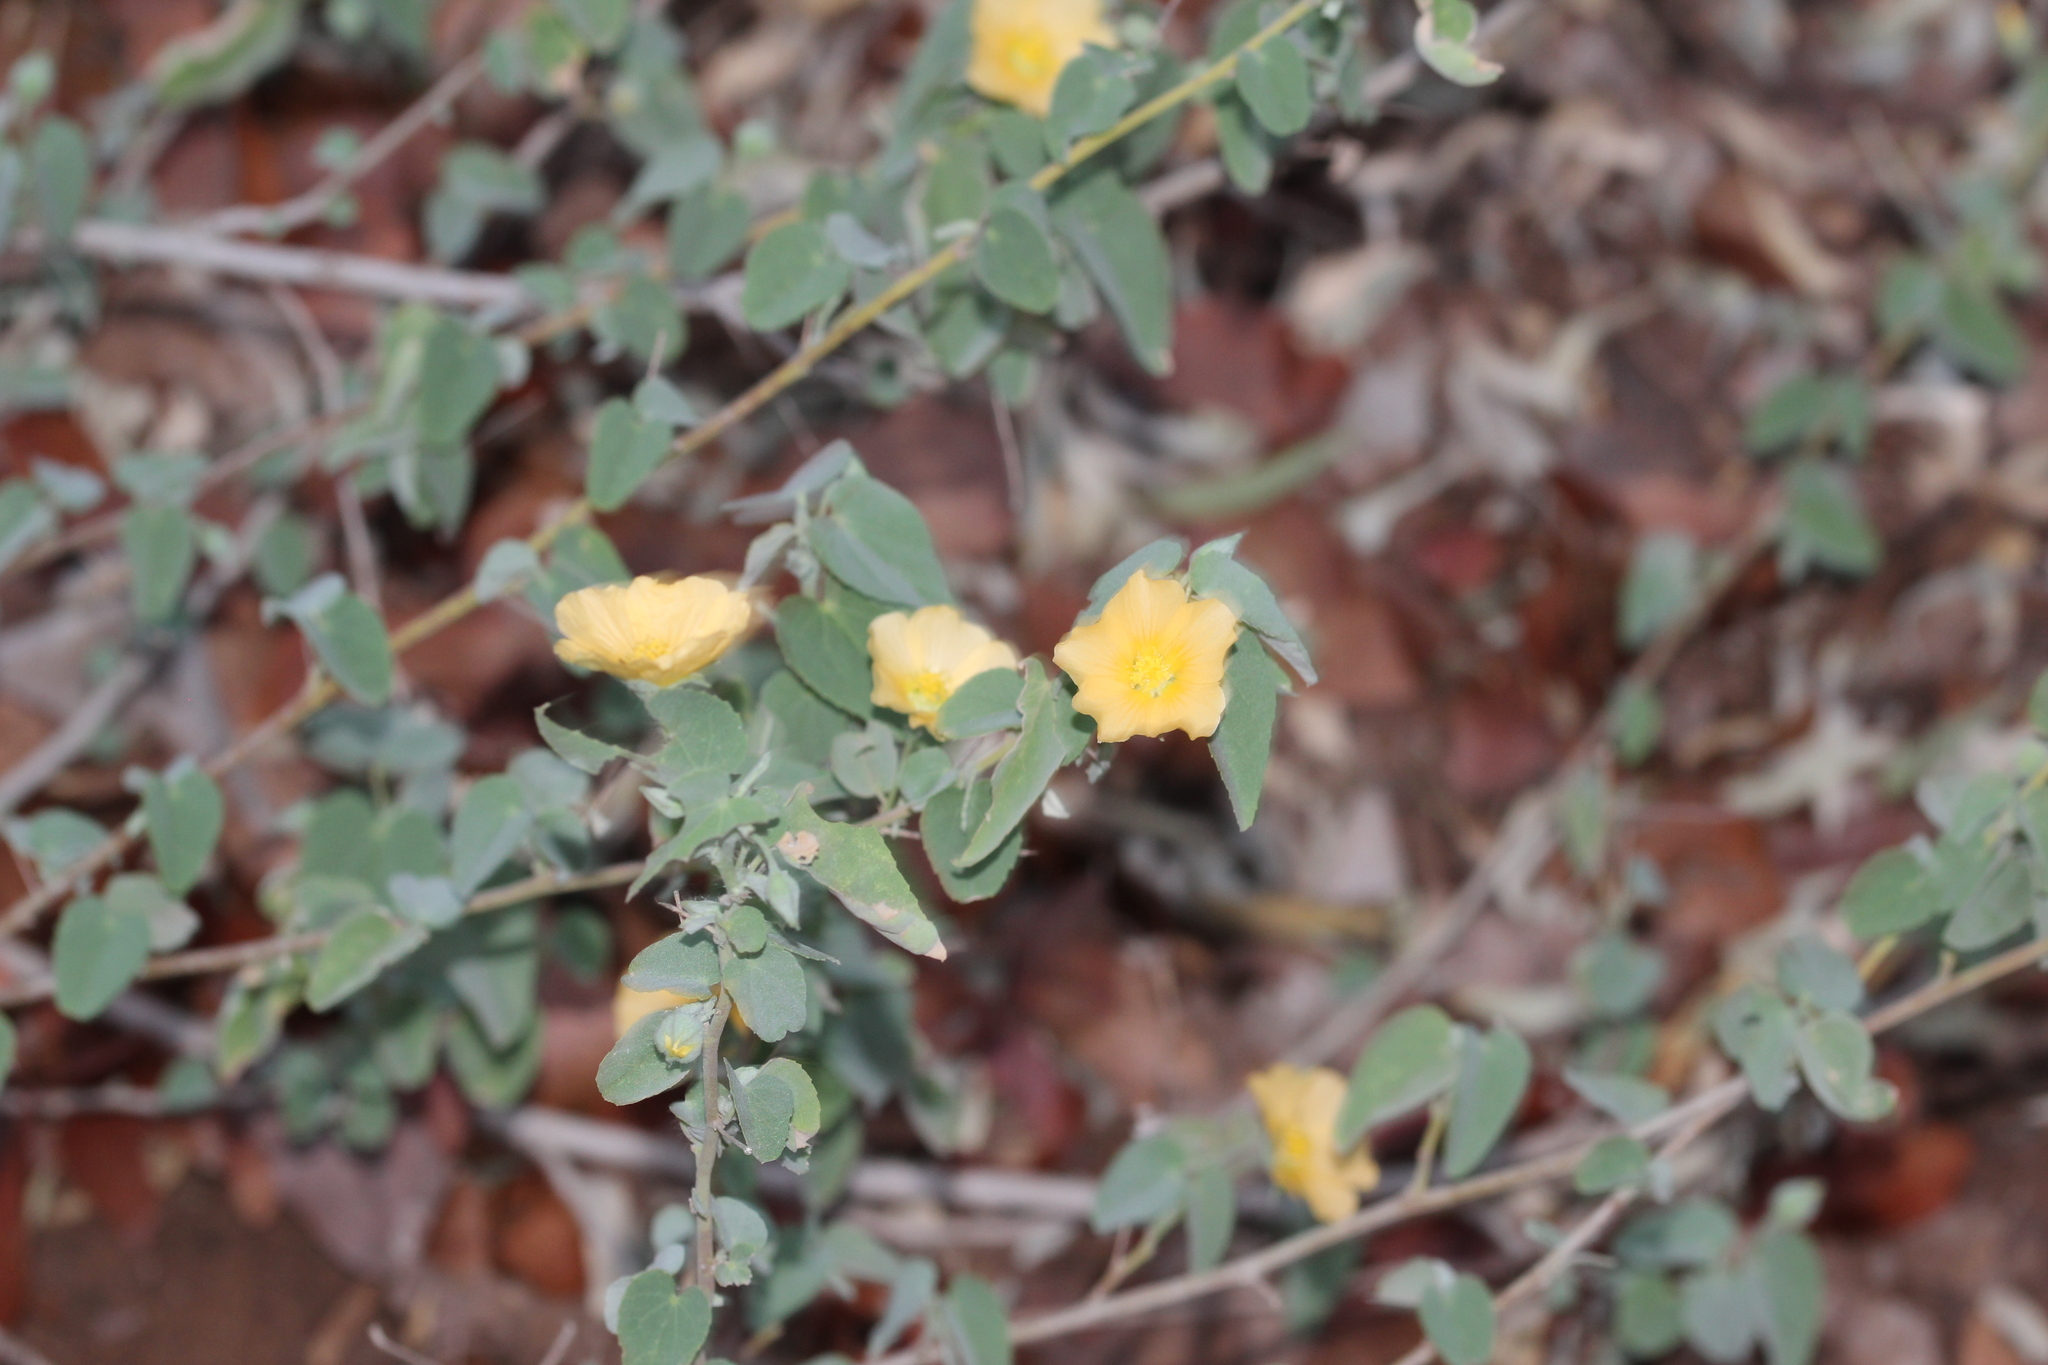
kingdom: Plantae
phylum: Tracheophyta
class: Magnoliopsida
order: Malvales
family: Malvaceae
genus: Abutilon
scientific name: Abutilon austroafricanum
